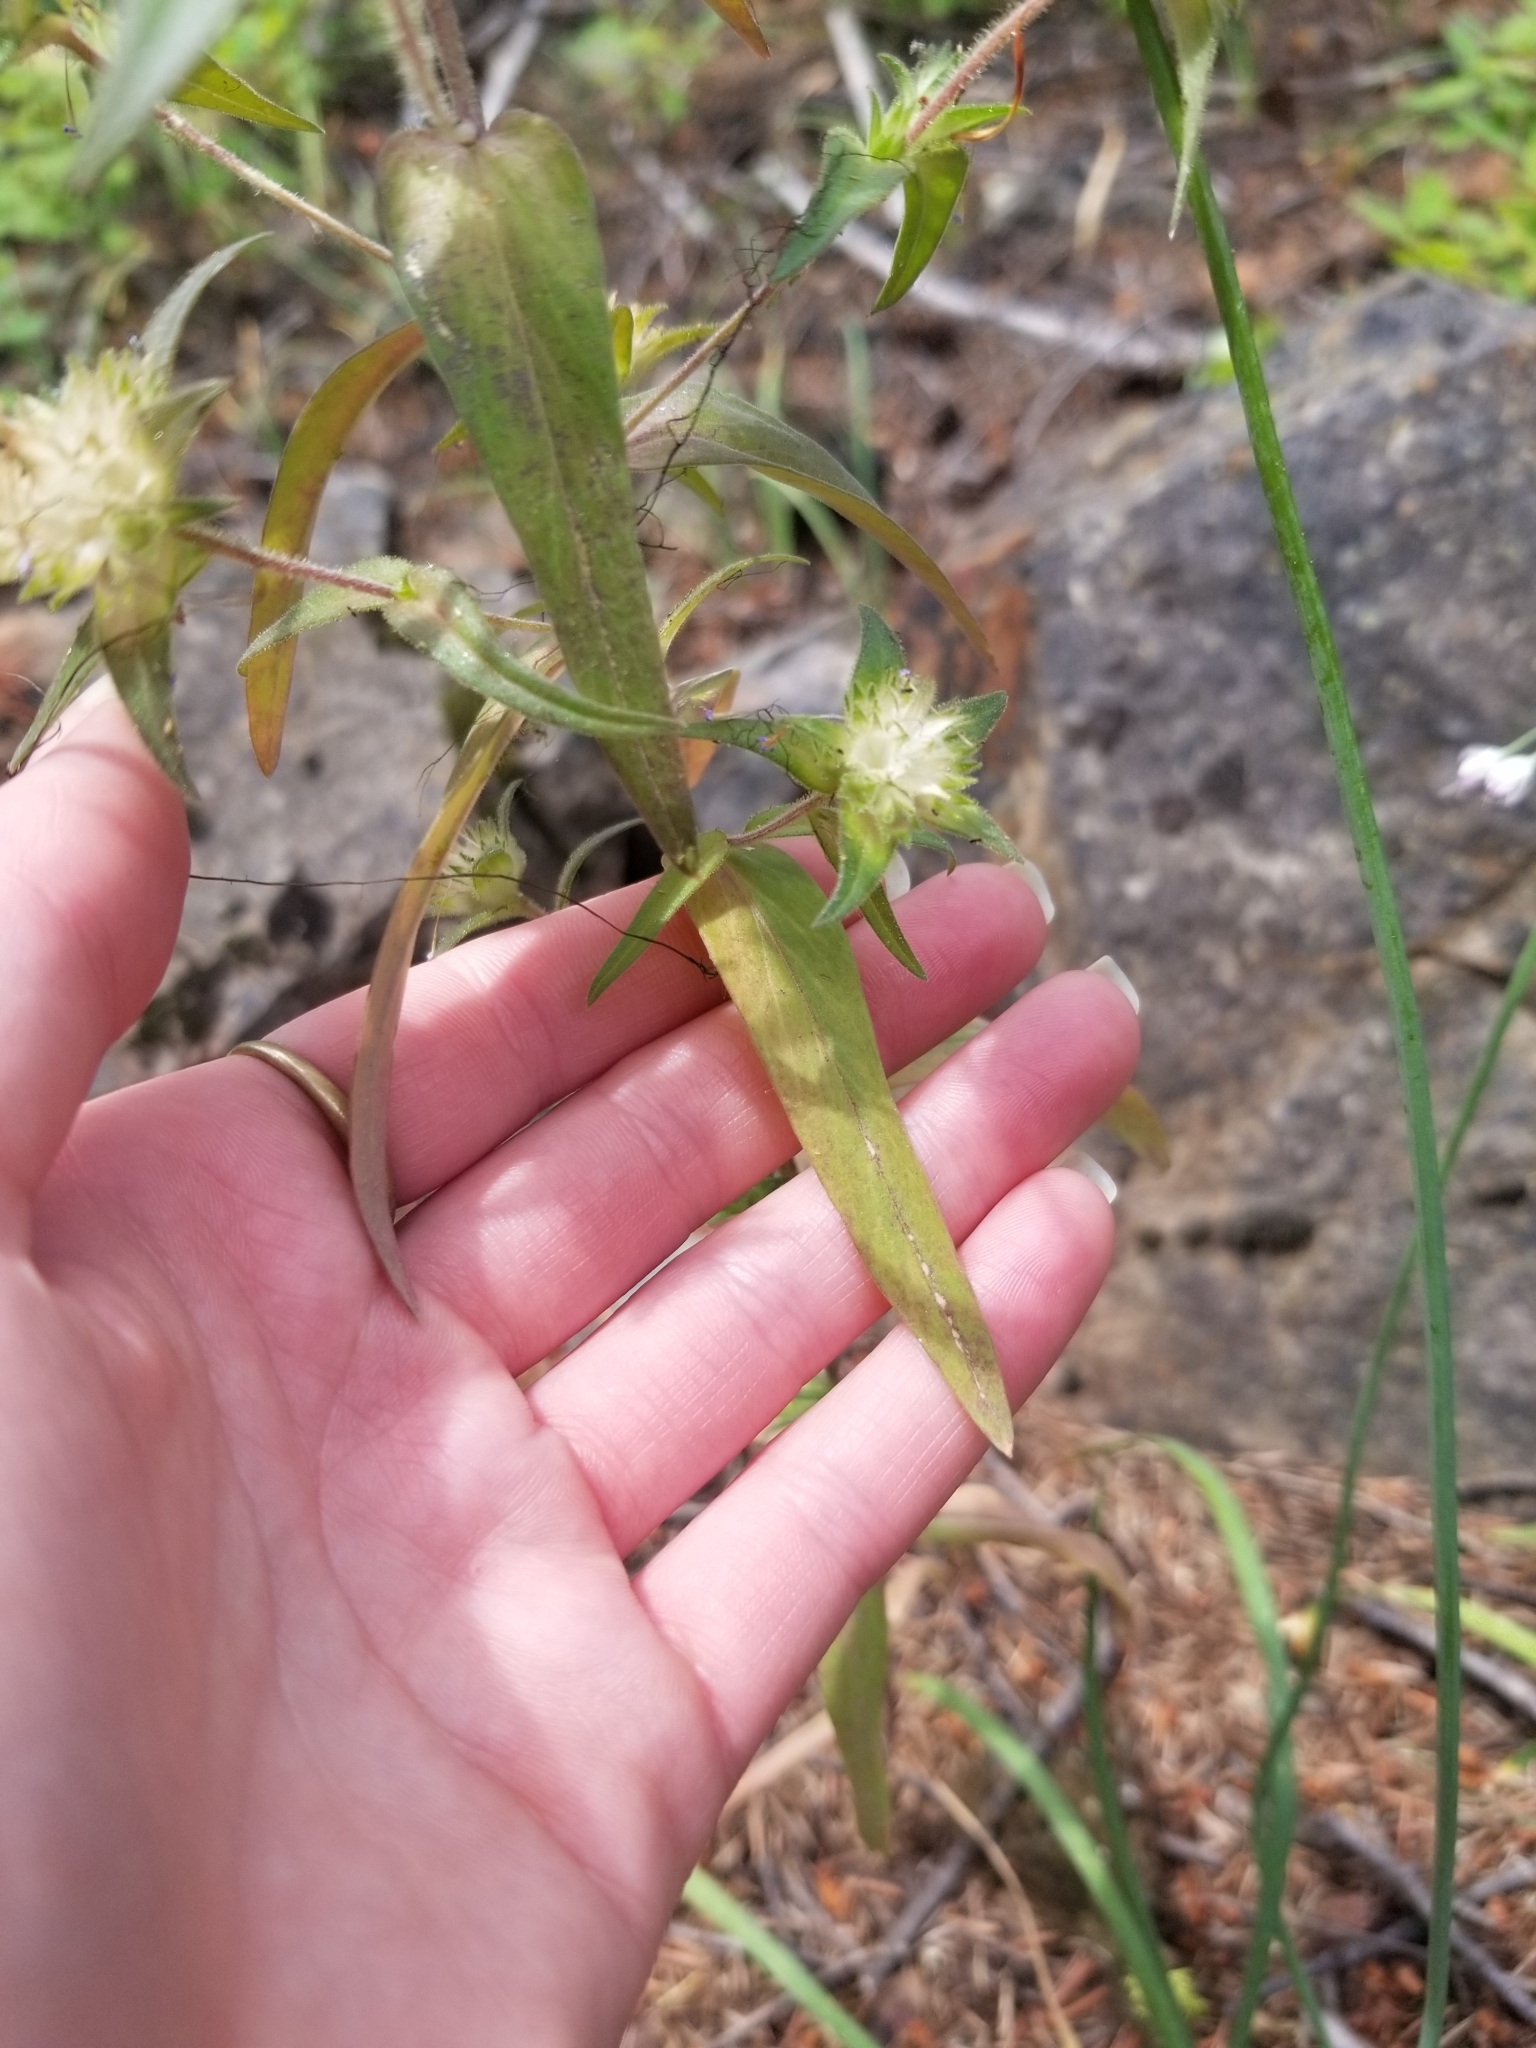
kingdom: Plantae
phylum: Tracheophyta
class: Magnoliopsida
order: Ericales
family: Polemoniaceae
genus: Collomia
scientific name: Collomia linearis
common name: Tiny trumpet
